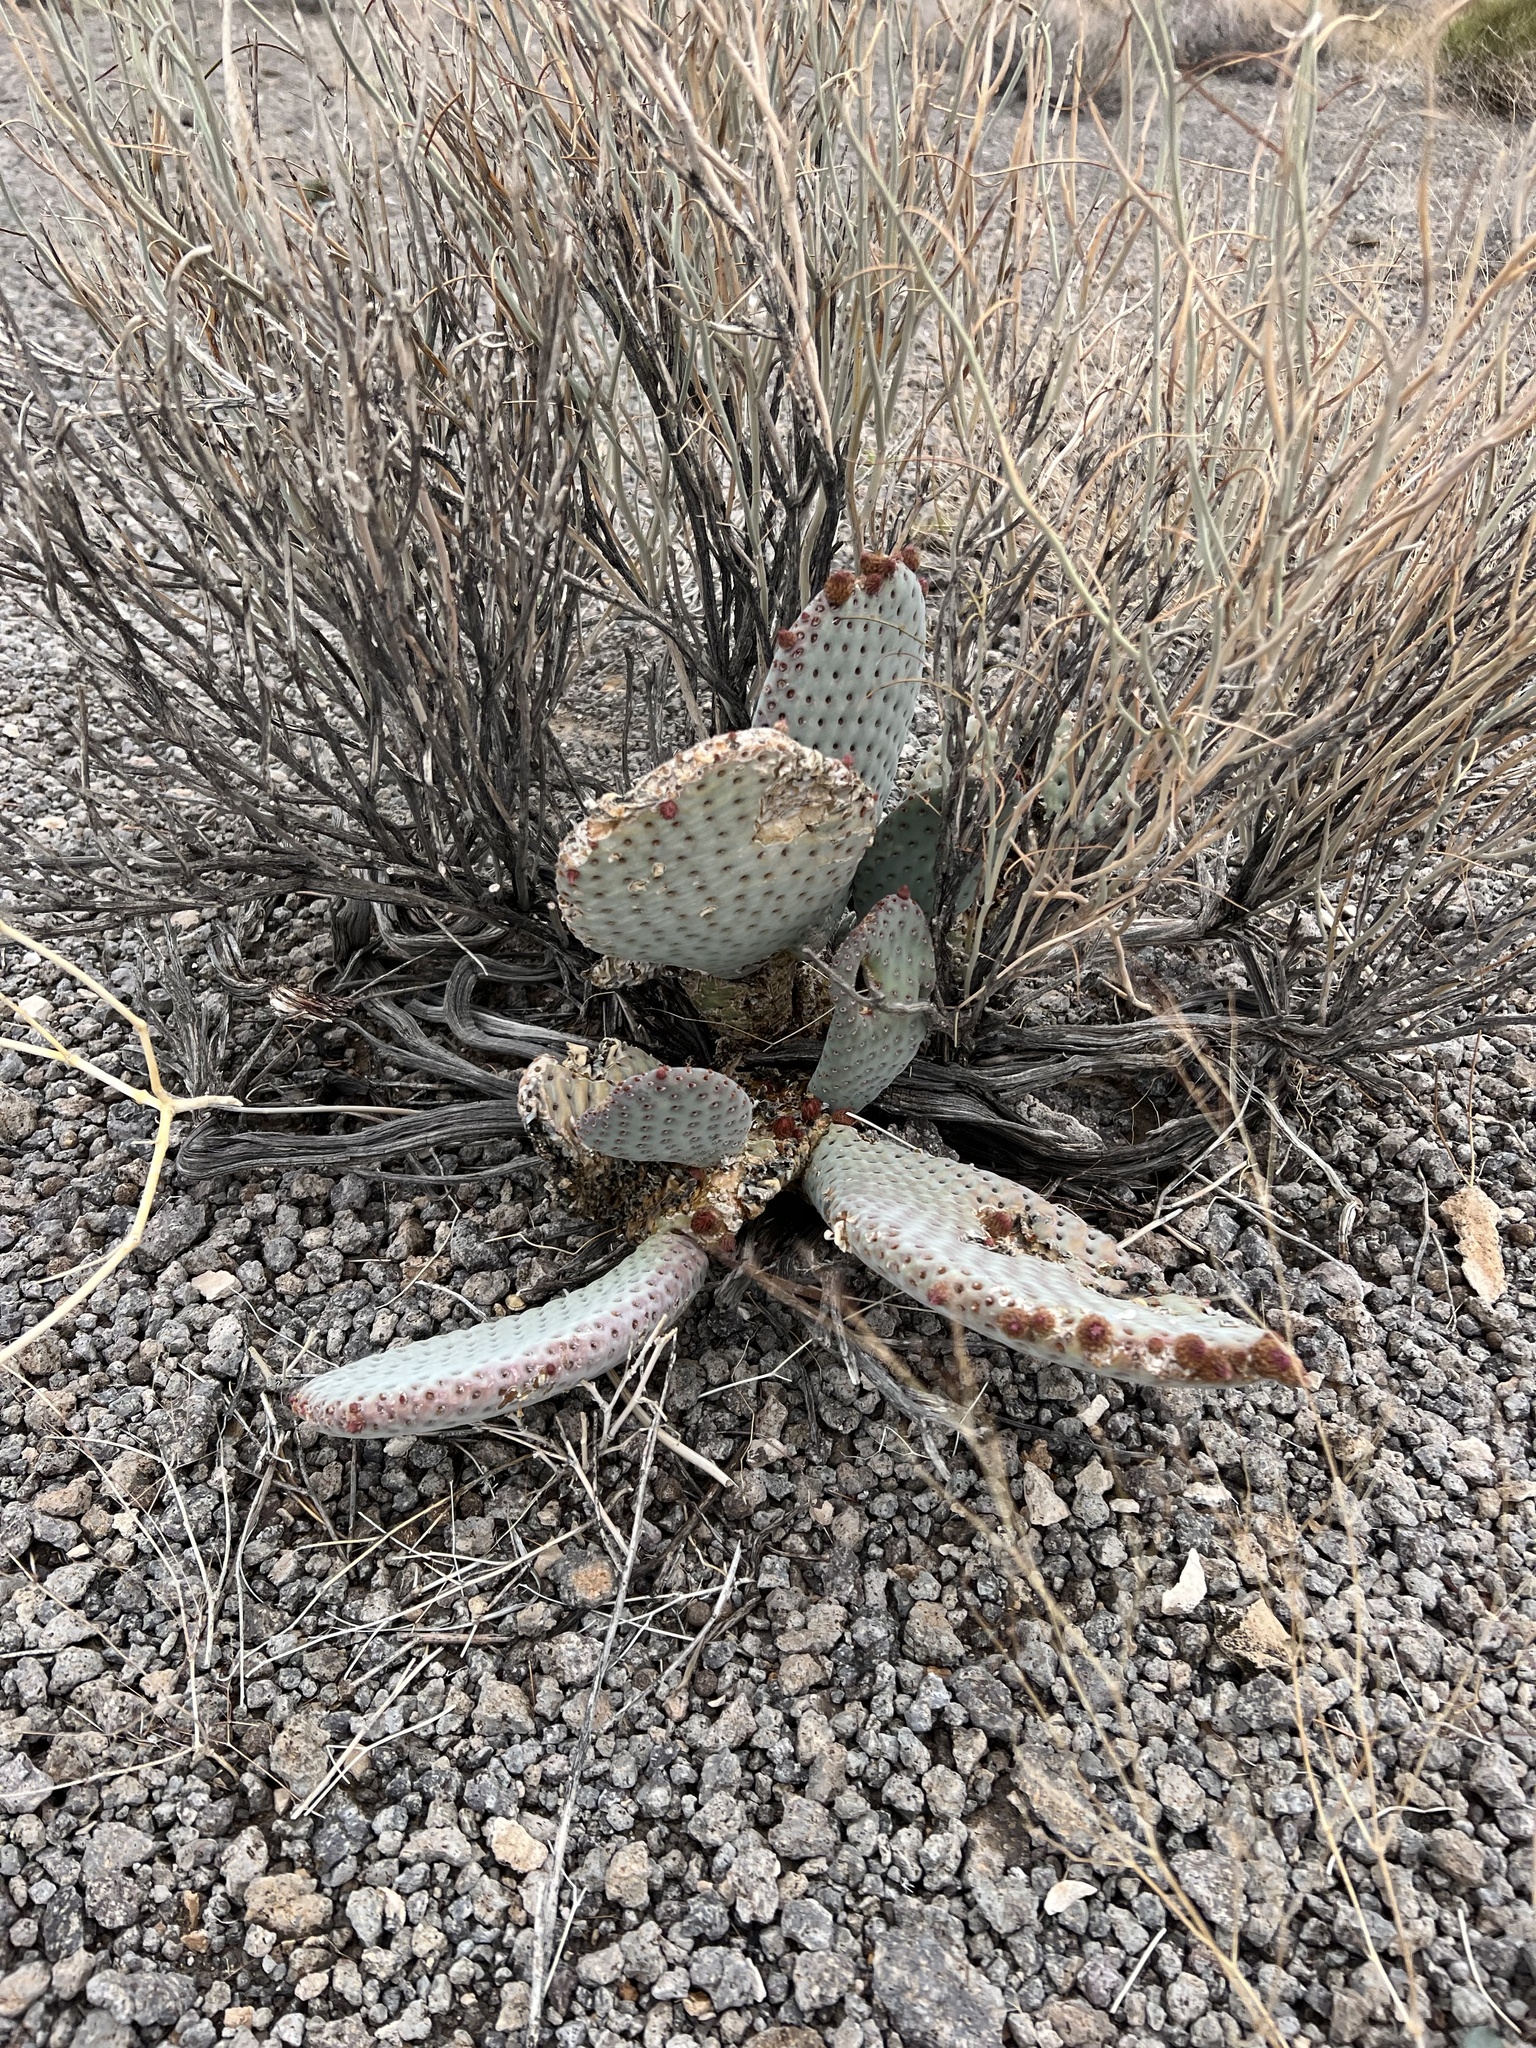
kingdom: Plantae
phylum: Tracheophyta
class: Magnoliopsida
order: Caryophyllales
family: Cactaceae
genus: Opuntia
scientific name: Opuntia basilaris
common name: Beavertail prickly-pear
